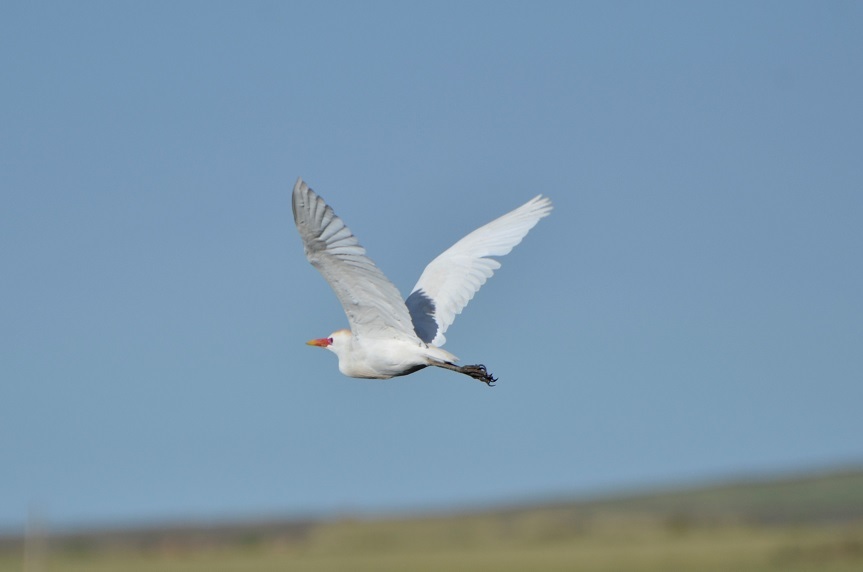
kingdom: Animalia
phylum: Chordata
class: Aves
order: Pelecaniformes
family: Ardeidae
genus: Bubulcus
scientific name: Bubulcus ibis
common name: Cattle egret
